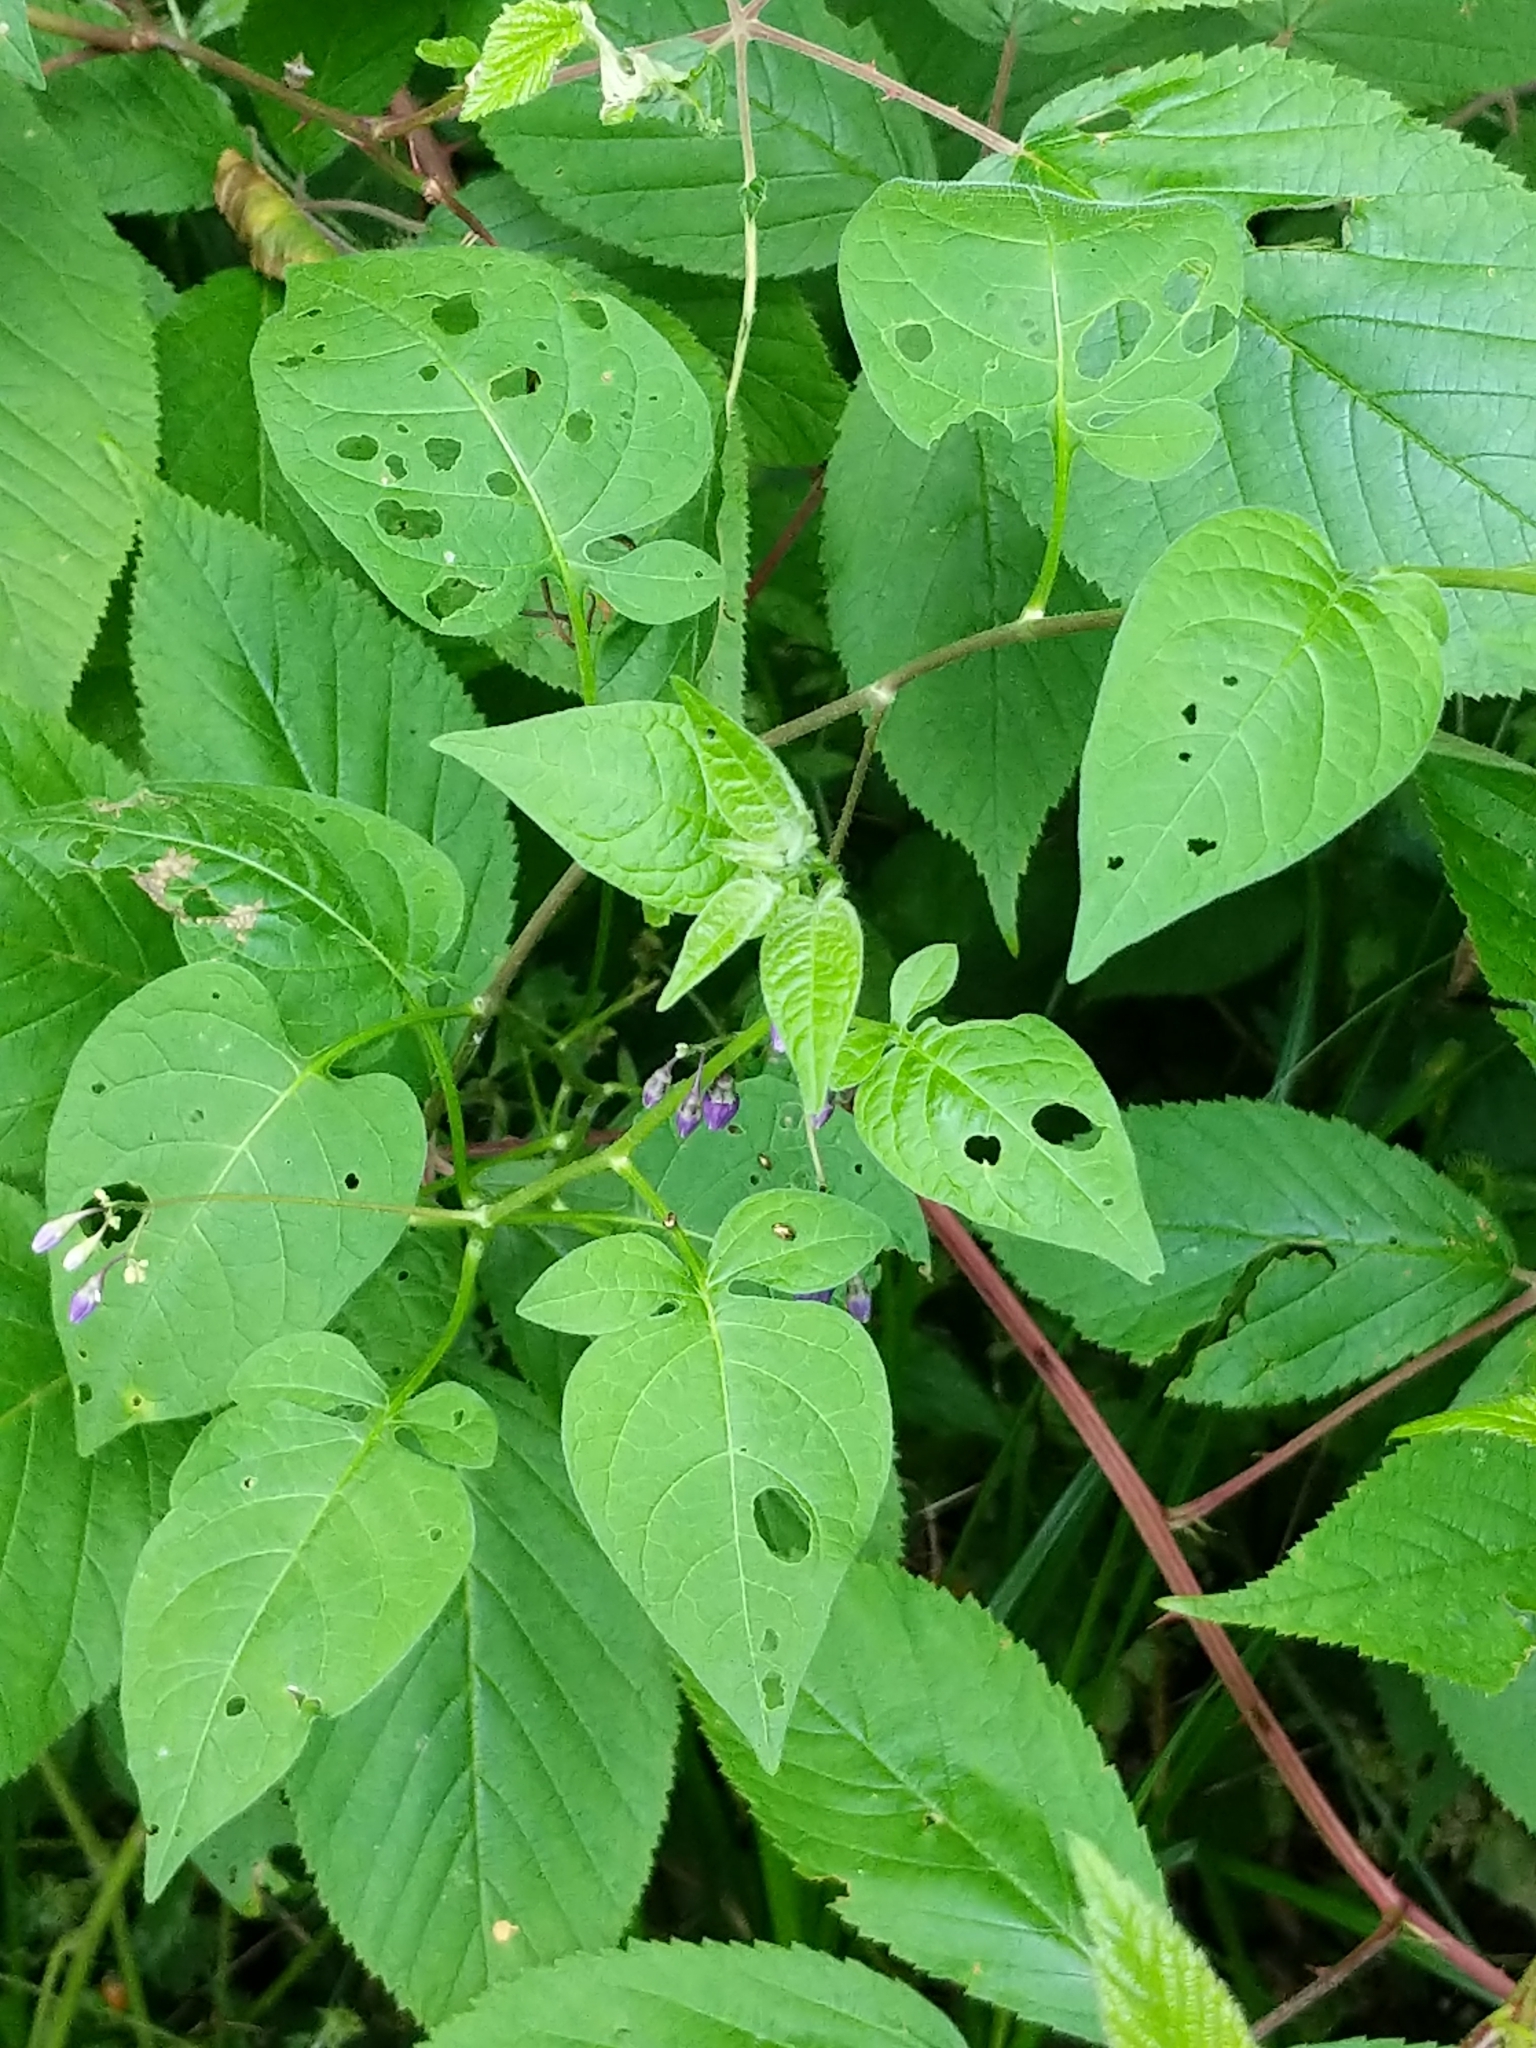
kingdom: Plantae
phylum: Tracheophyta
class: Magnoliopsida
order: Solanales
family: Solanaceae
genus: Solanum
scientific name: Solanum dulcamara
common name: Climbing nightshade
